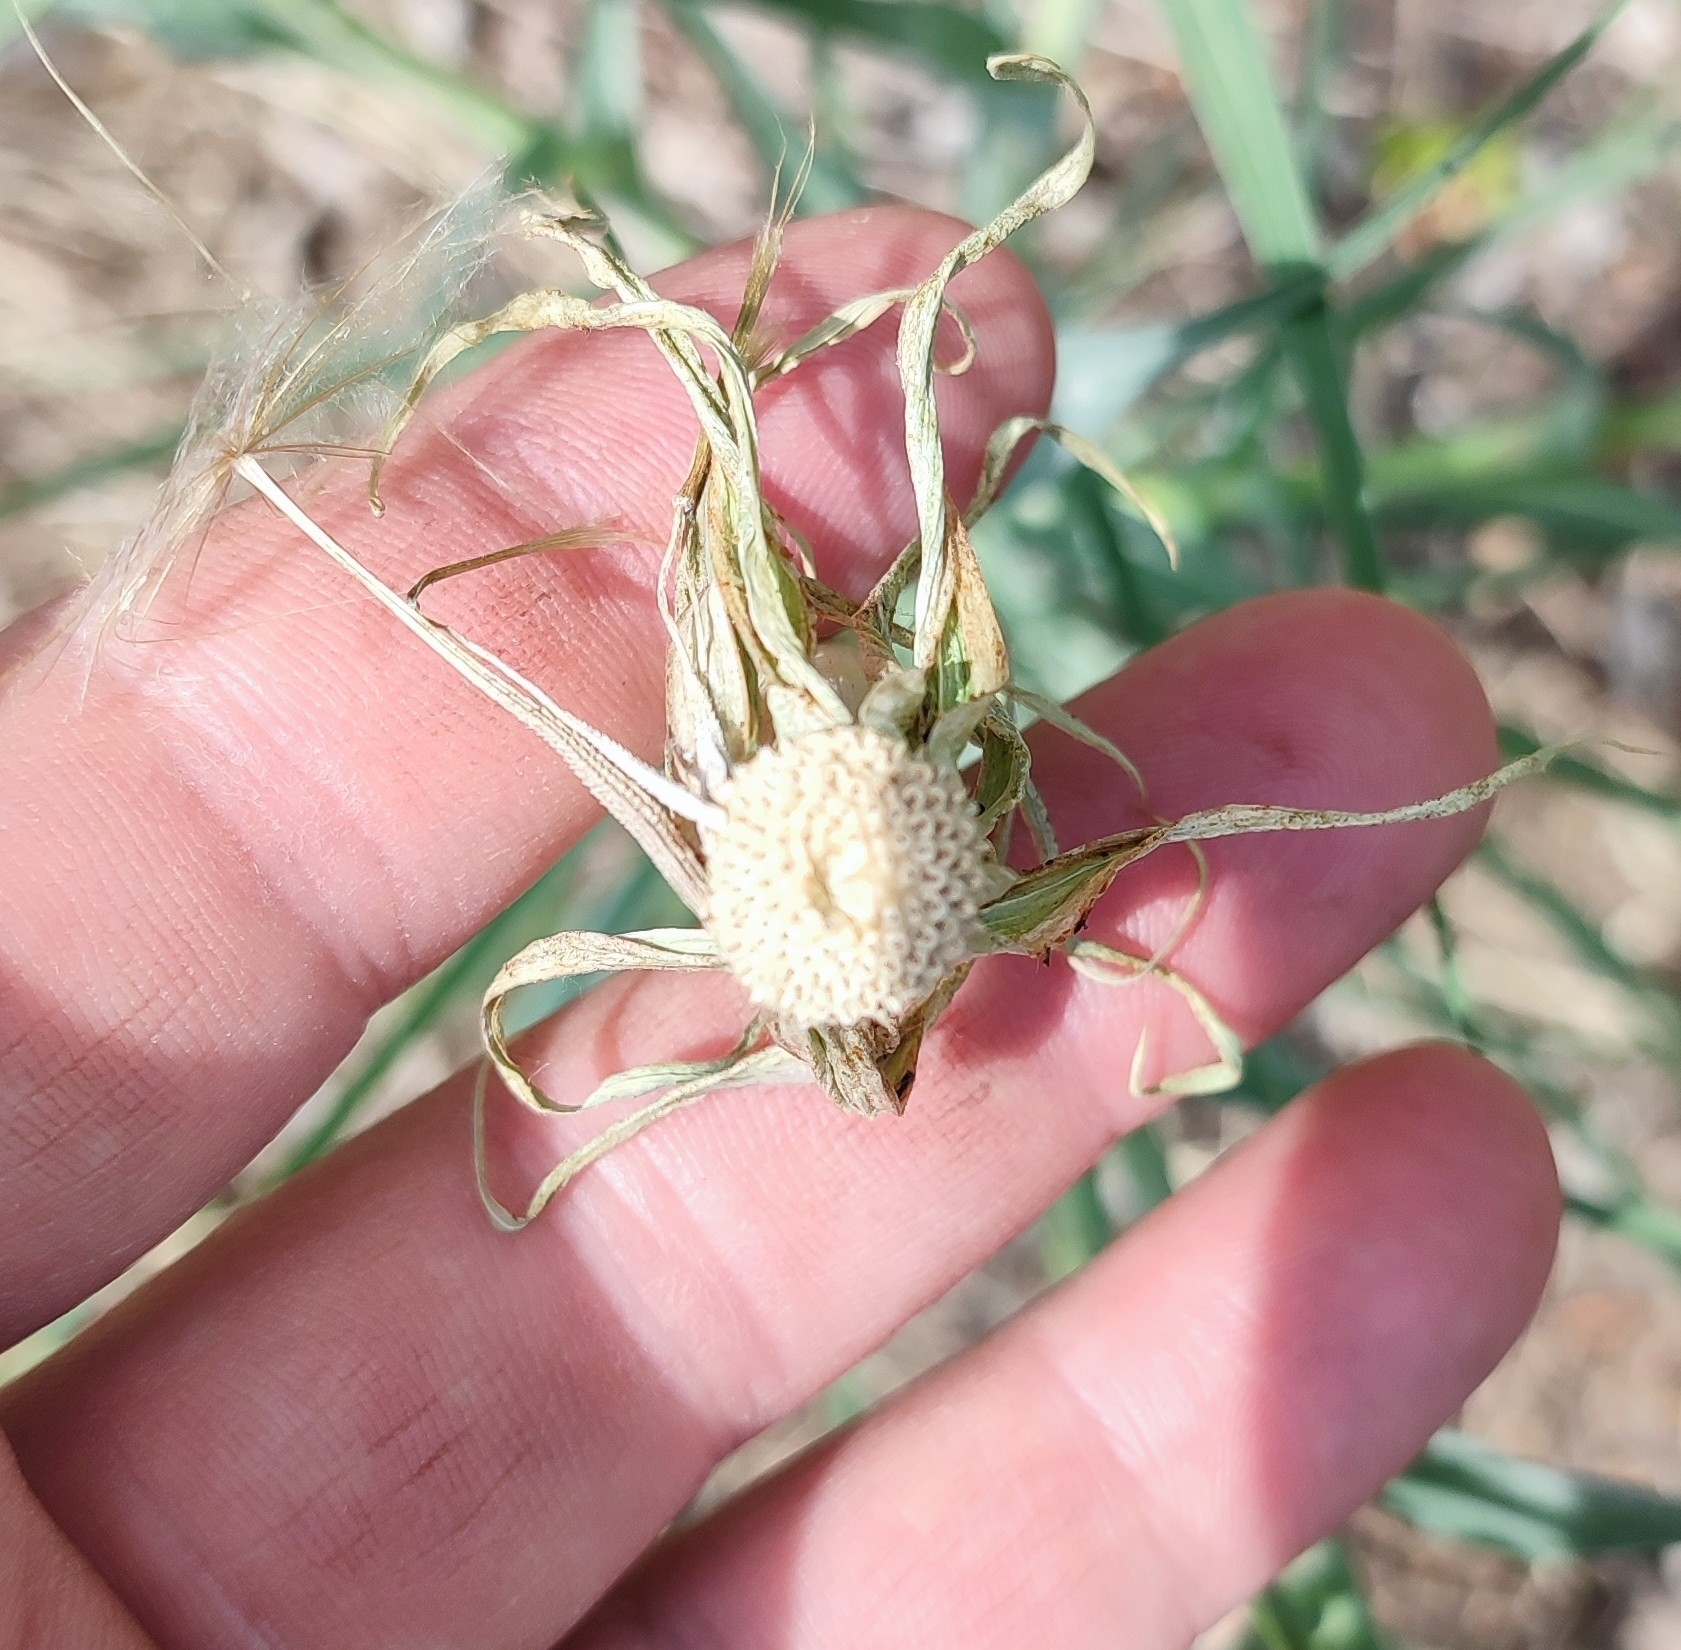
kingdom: Plantae
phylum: Tracheophyta
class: Magnoliopsida
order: Asterales
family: Asteraceae
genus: Tragopogon
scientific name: Tragopogon dubius
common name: Yellow salsify
